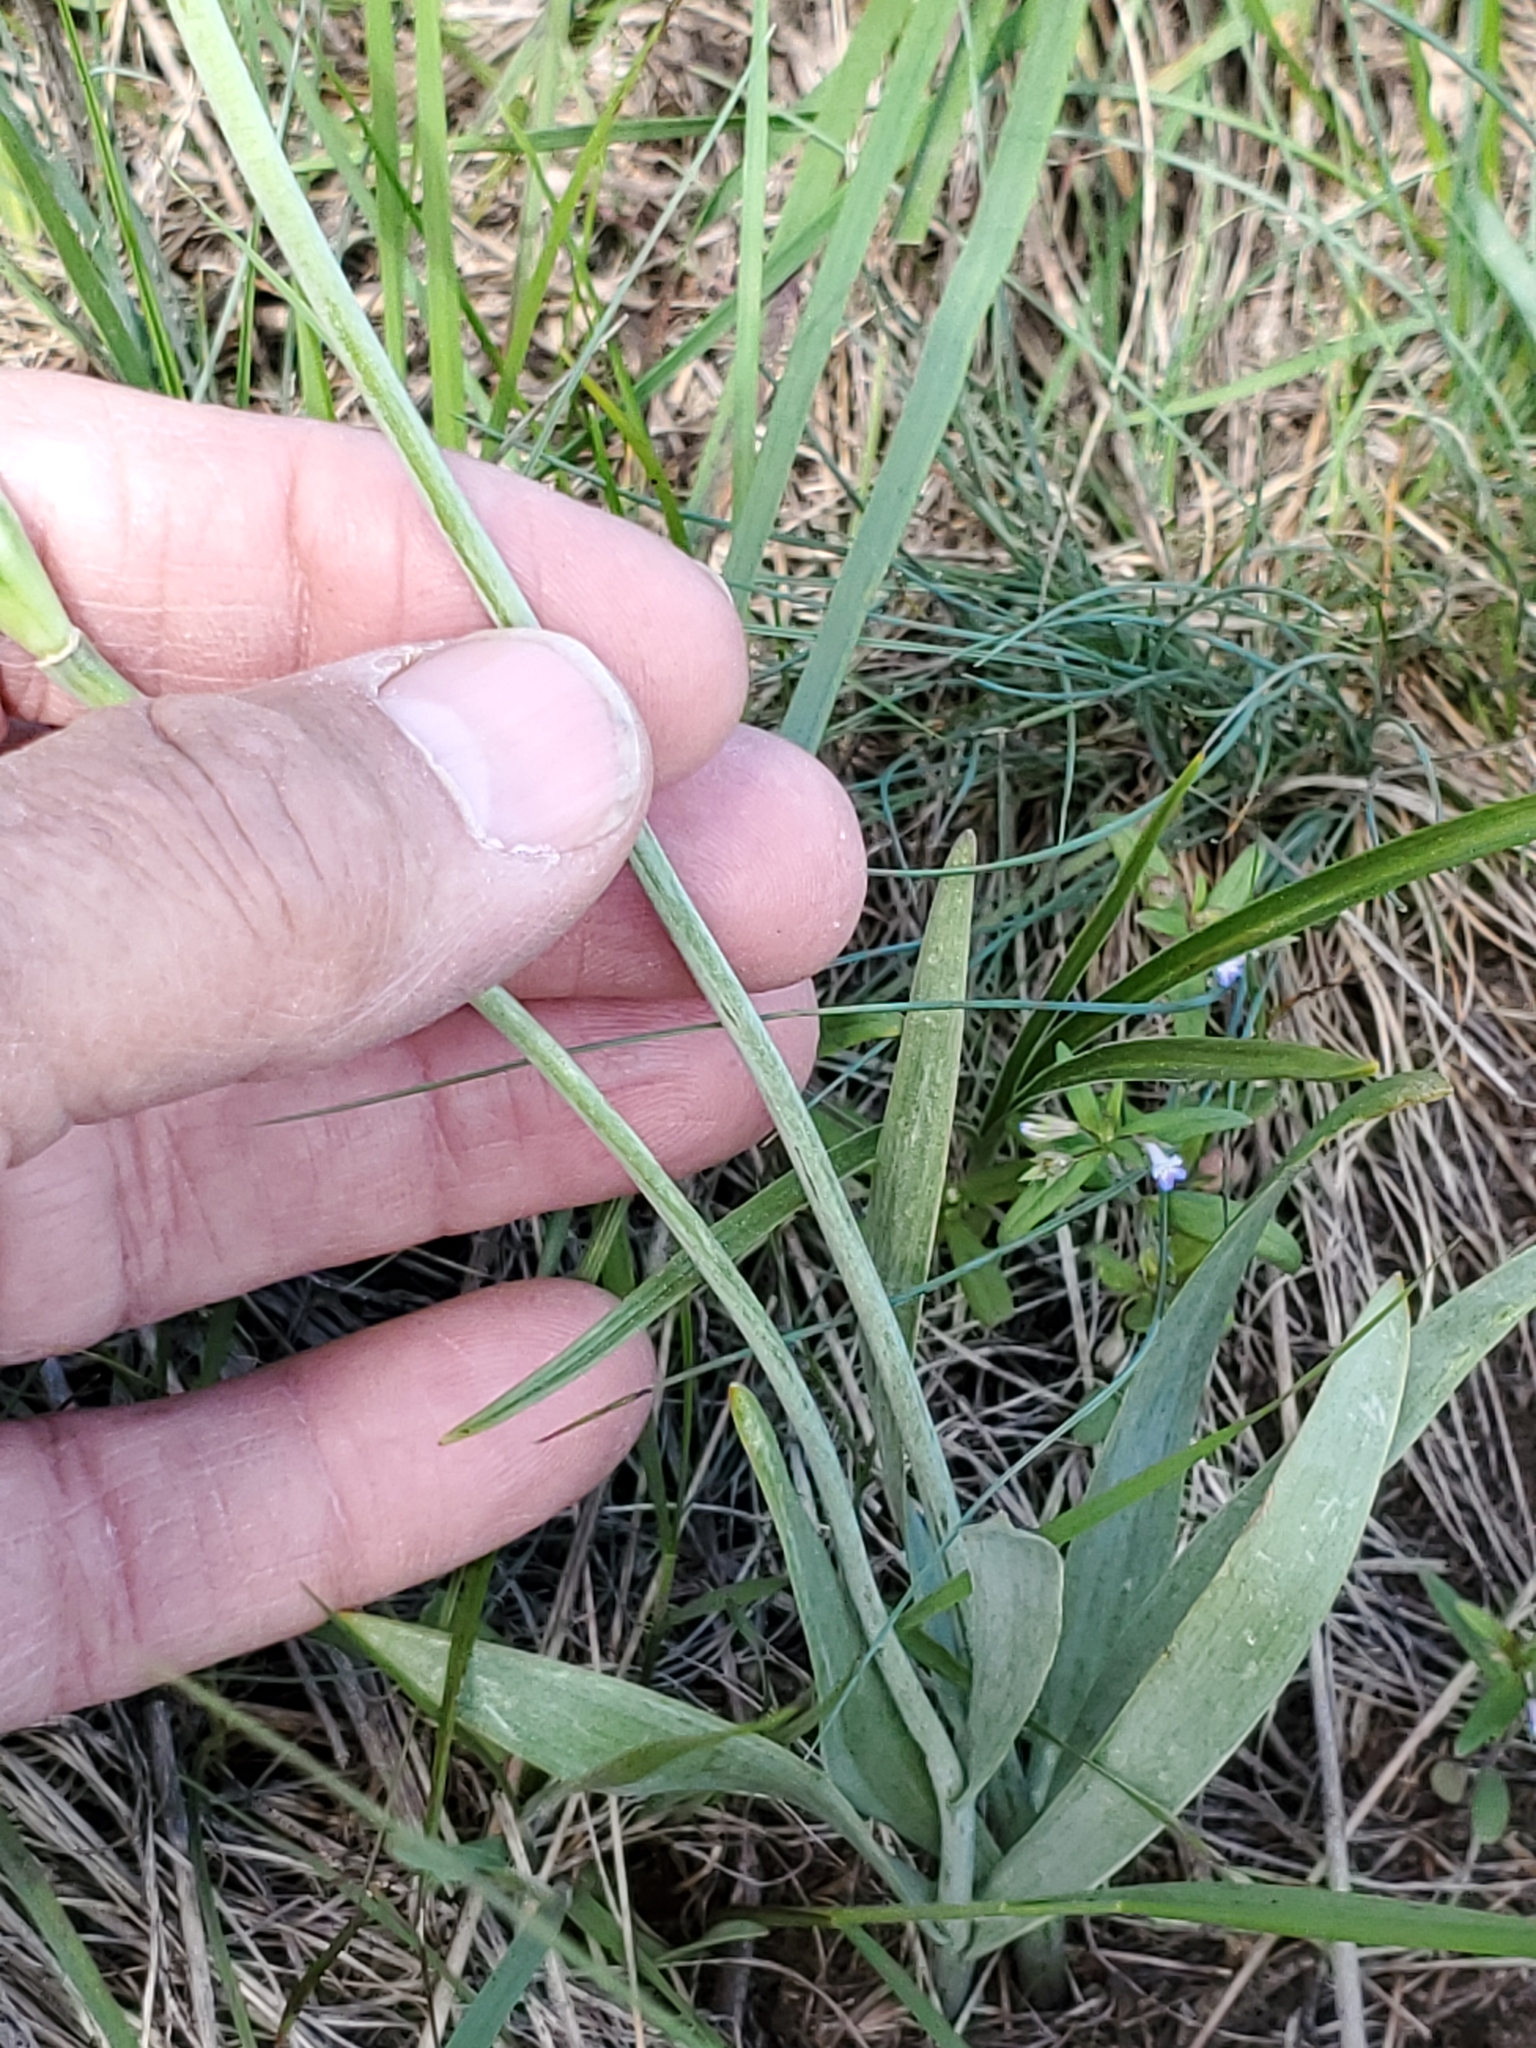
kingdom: Plantae
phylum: Tracheophyta
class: Liliopsida
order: Liliales
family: Liliaceae
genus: Fritillaria
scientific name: Fritillaria pudica
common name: Yellow fritillary
